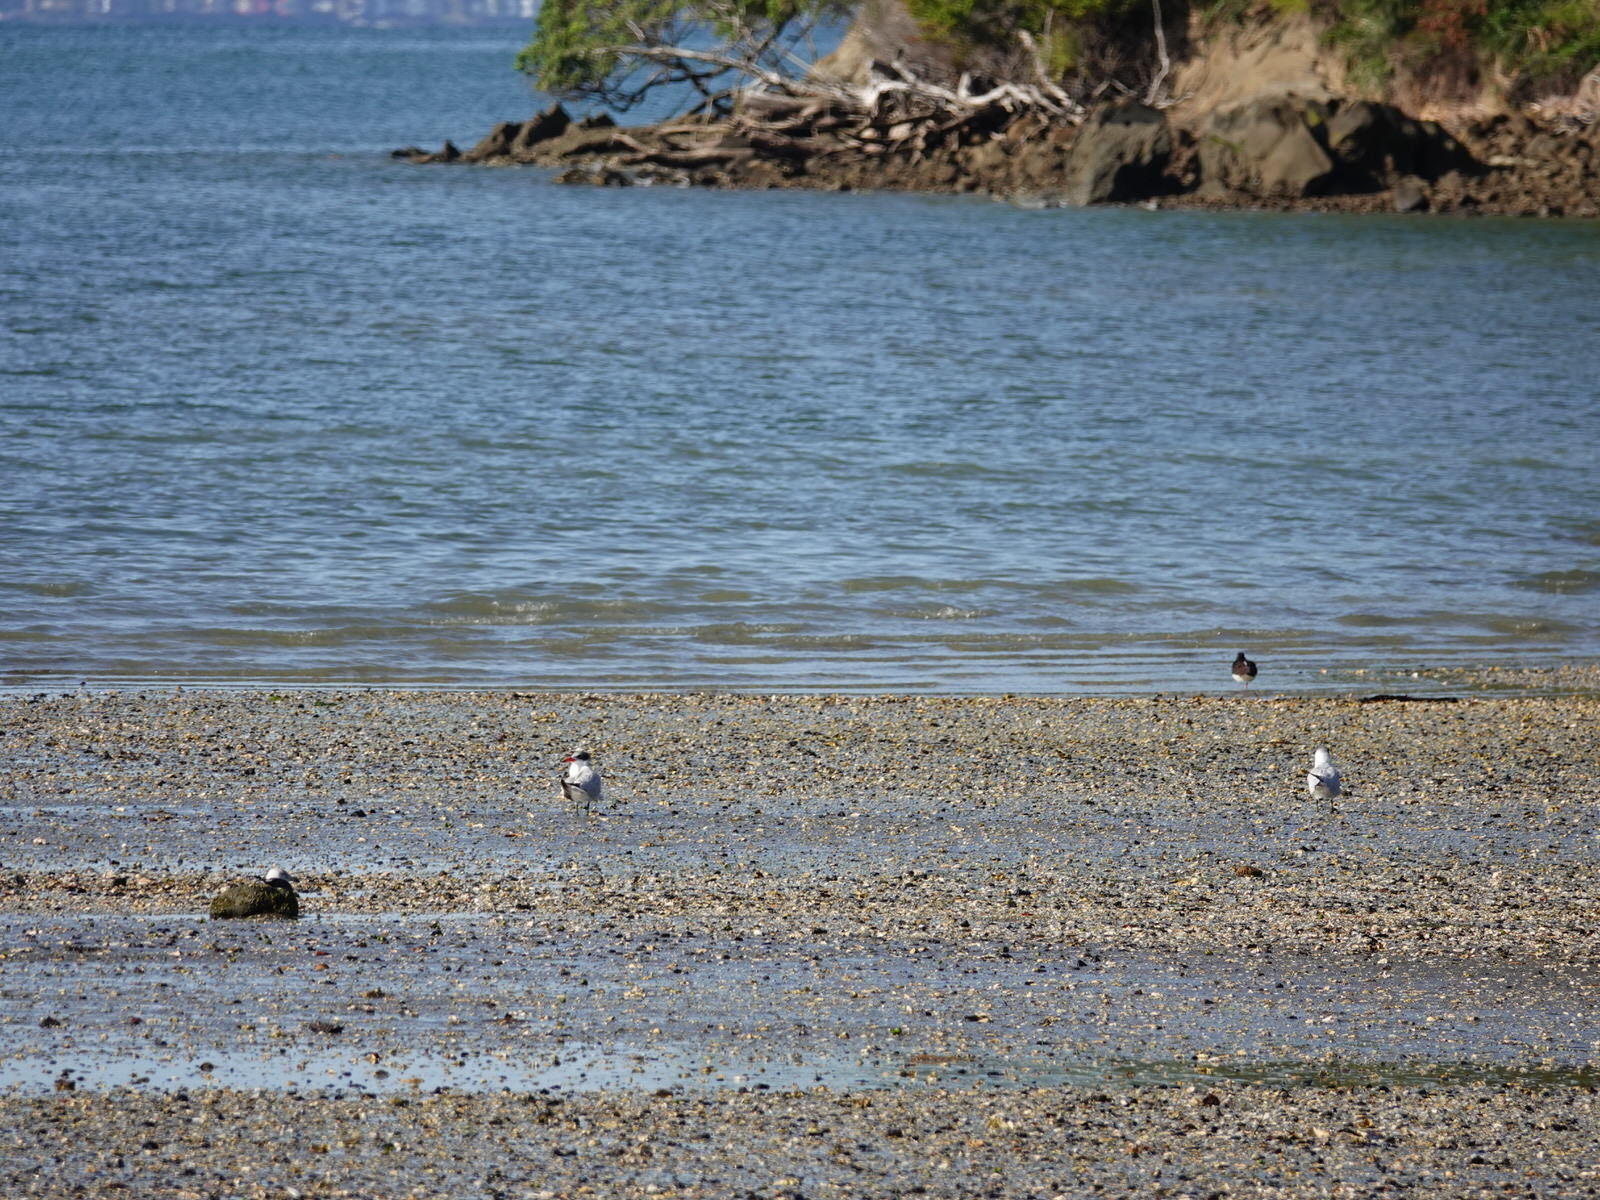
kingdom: Animalia
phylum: Chordata
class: Aves
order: Charadriiformes
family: Laridae
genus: Hydroprogne
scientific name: Hydroprogne caspia
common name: Caspian tern
